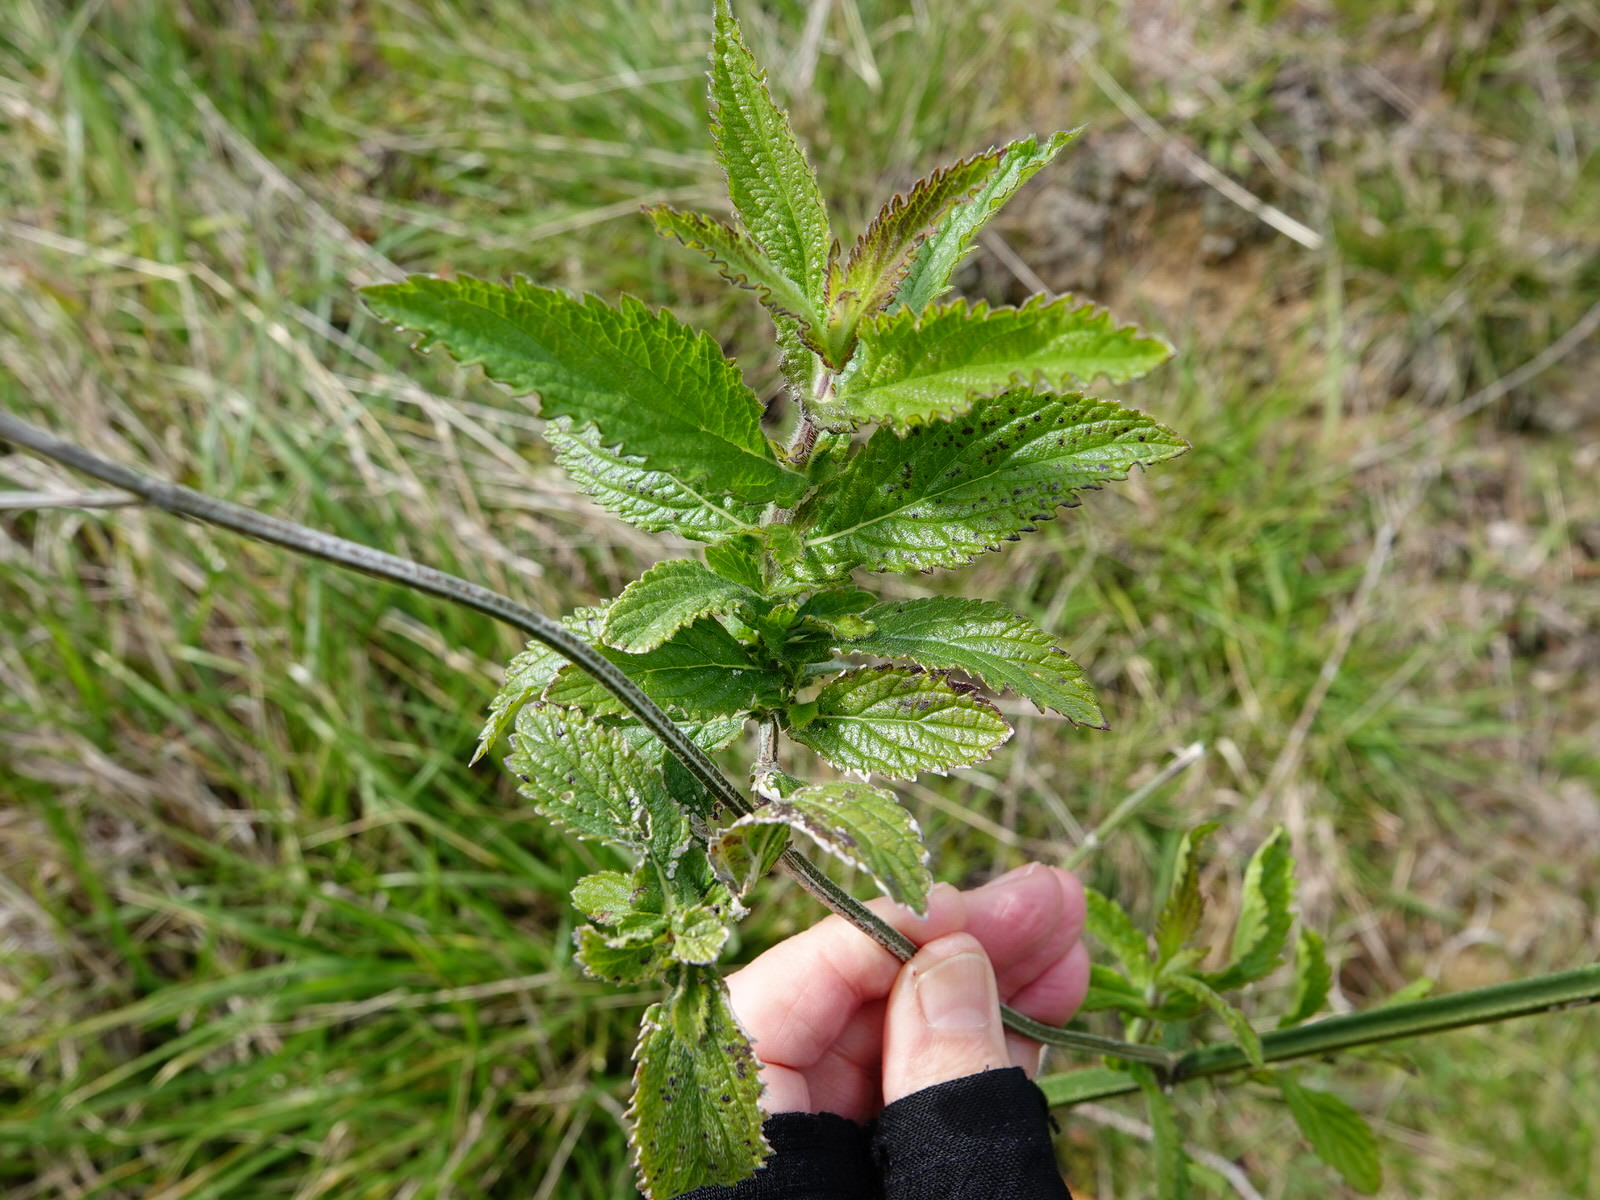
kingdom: Plantae
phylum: Tracheophyta
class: Magnoliopsida
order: Lamiales
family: Verbenaceae
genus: Verbena
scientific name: Verbena incompta
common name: Purpletop vervain
